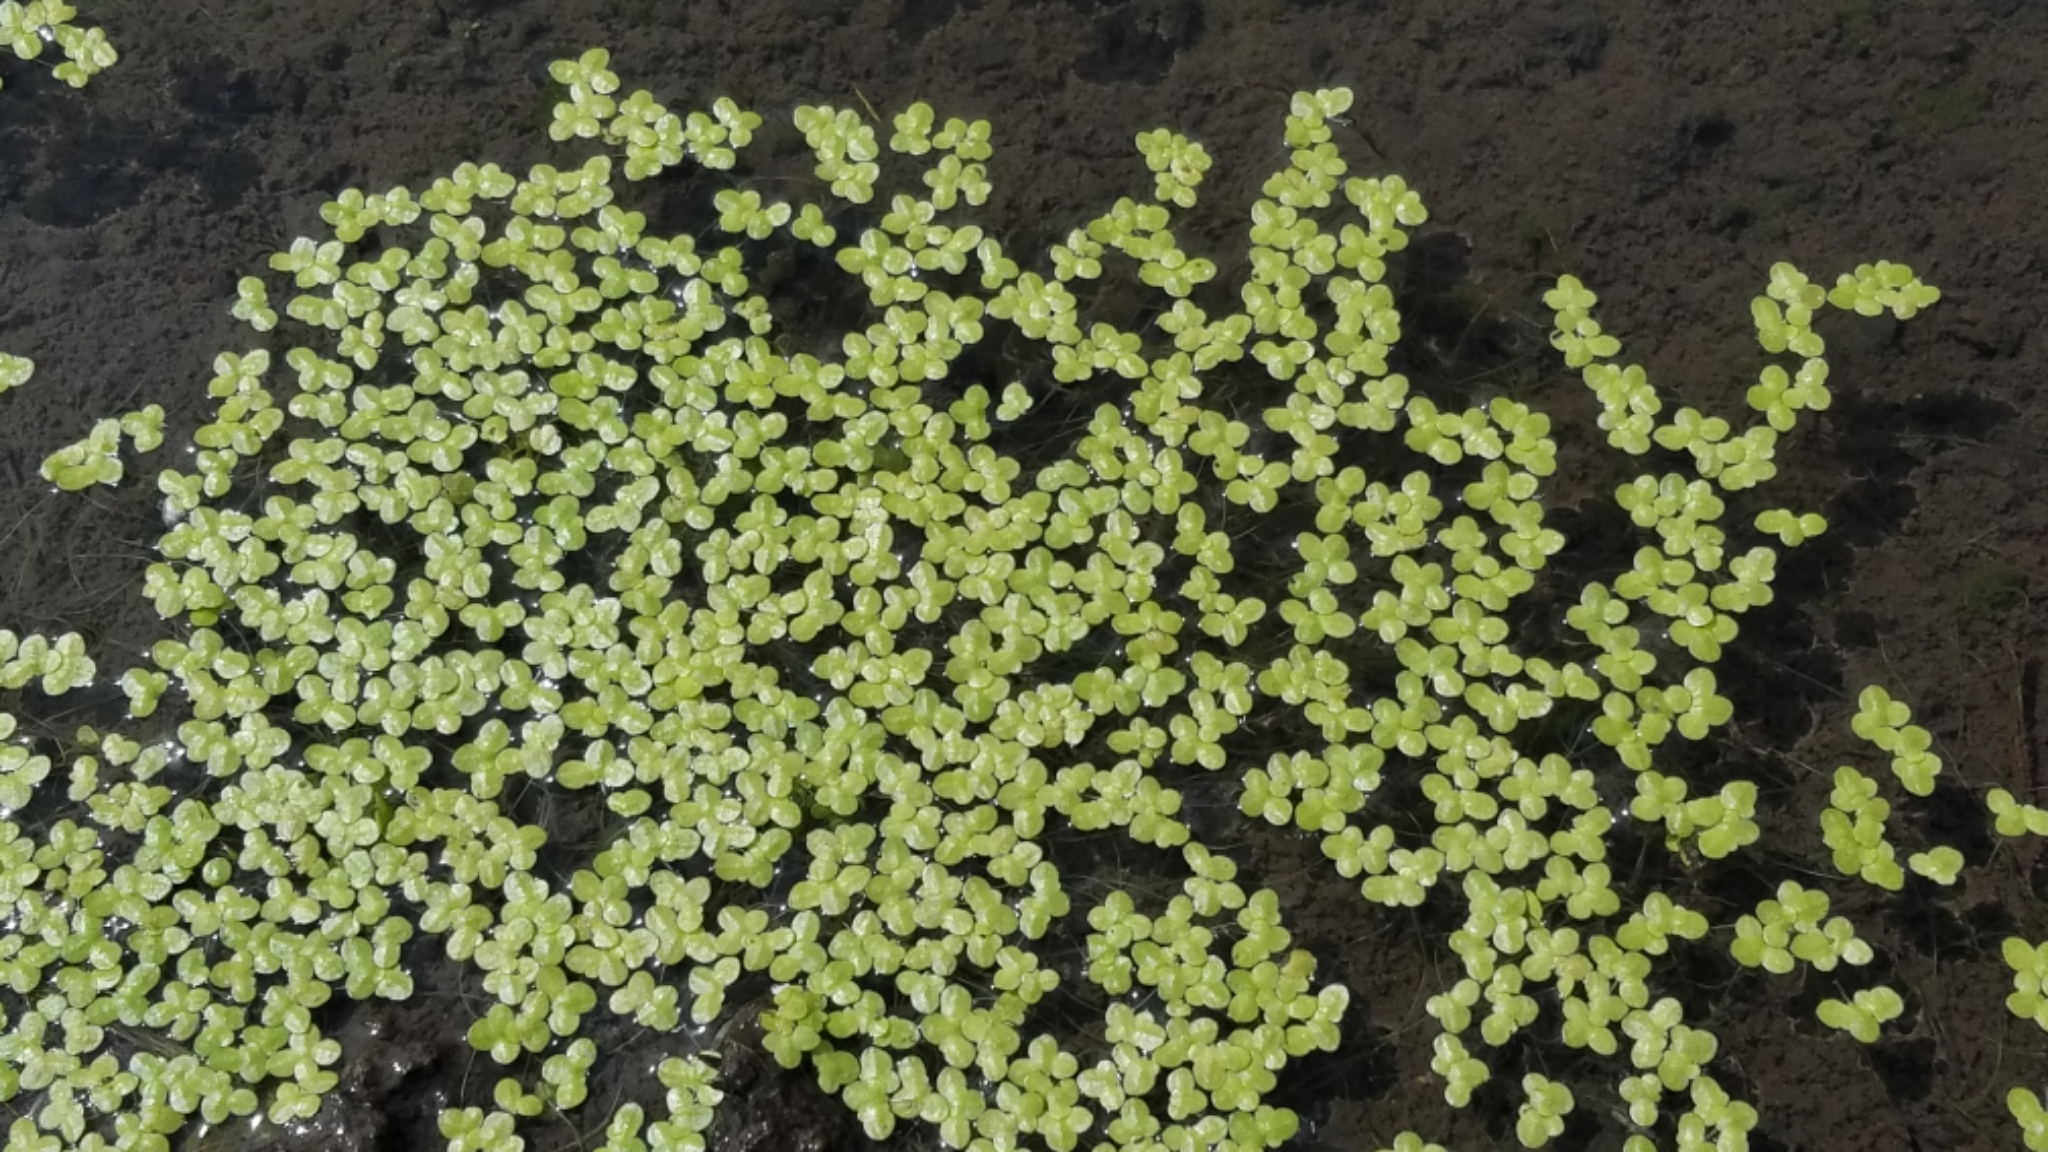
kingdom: Plantae
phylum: Tracheophyta
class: Liliopsida
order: Alismatales
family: Araceae
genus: Lemna
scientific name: Lemna minor
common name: Common duckweed
